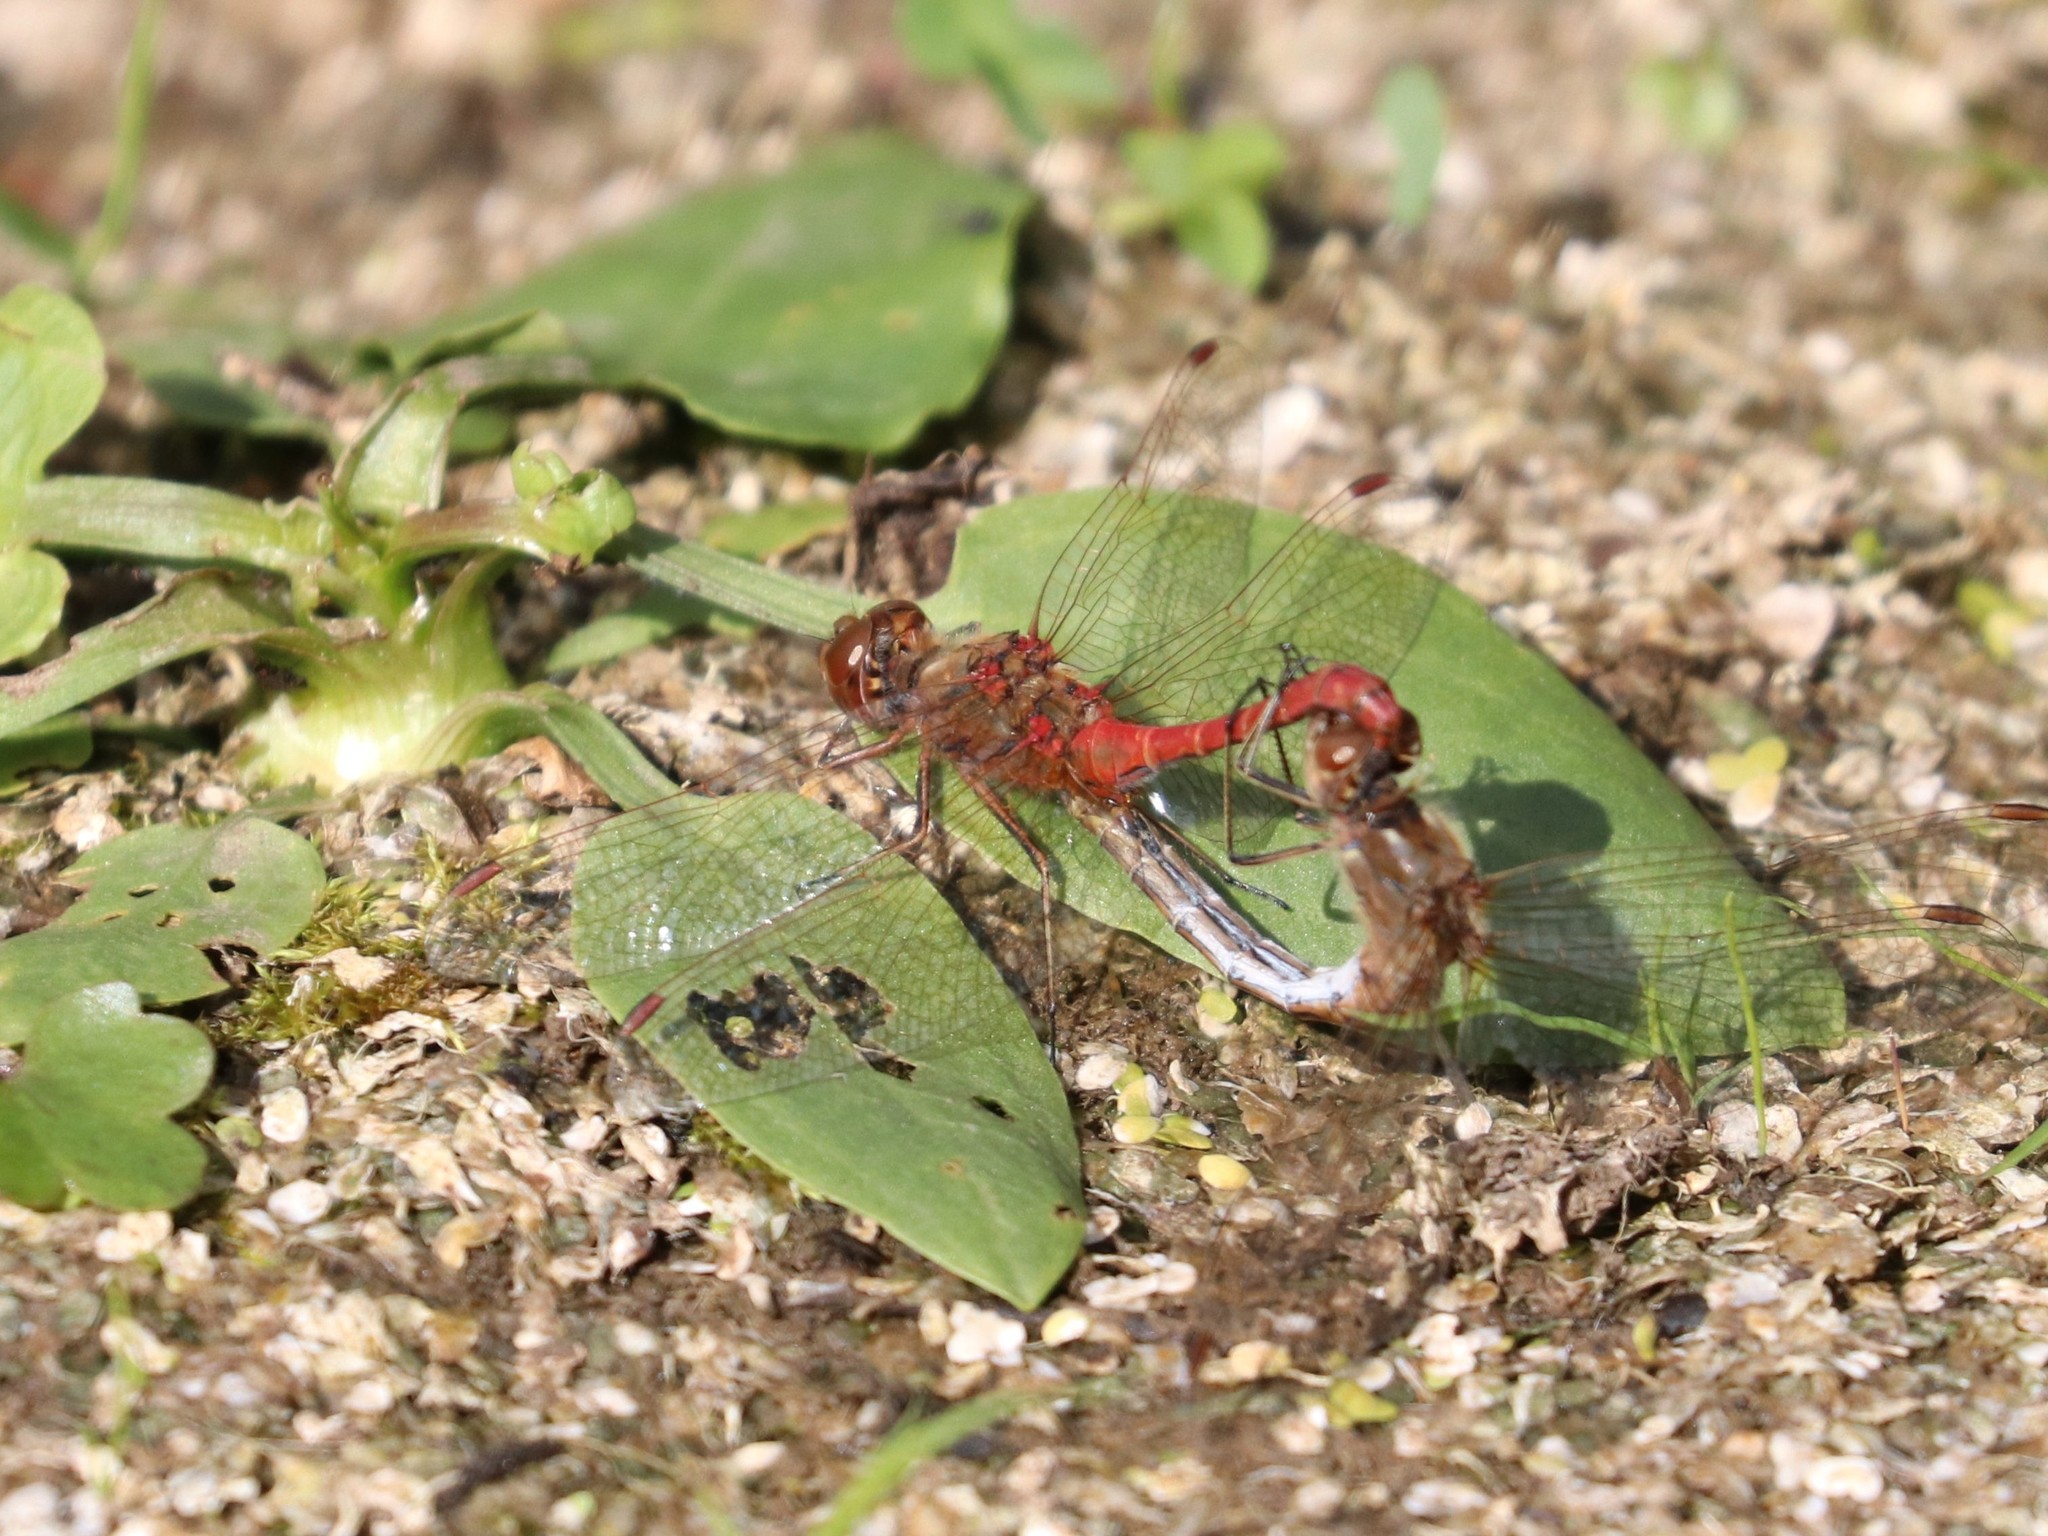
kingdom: Animalia
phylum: Arthropoda
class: Insecta
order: Odonata
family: Libellulidae
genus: Sympetrum
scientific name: Sympetrum vulgatum
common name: Vagrant darter
